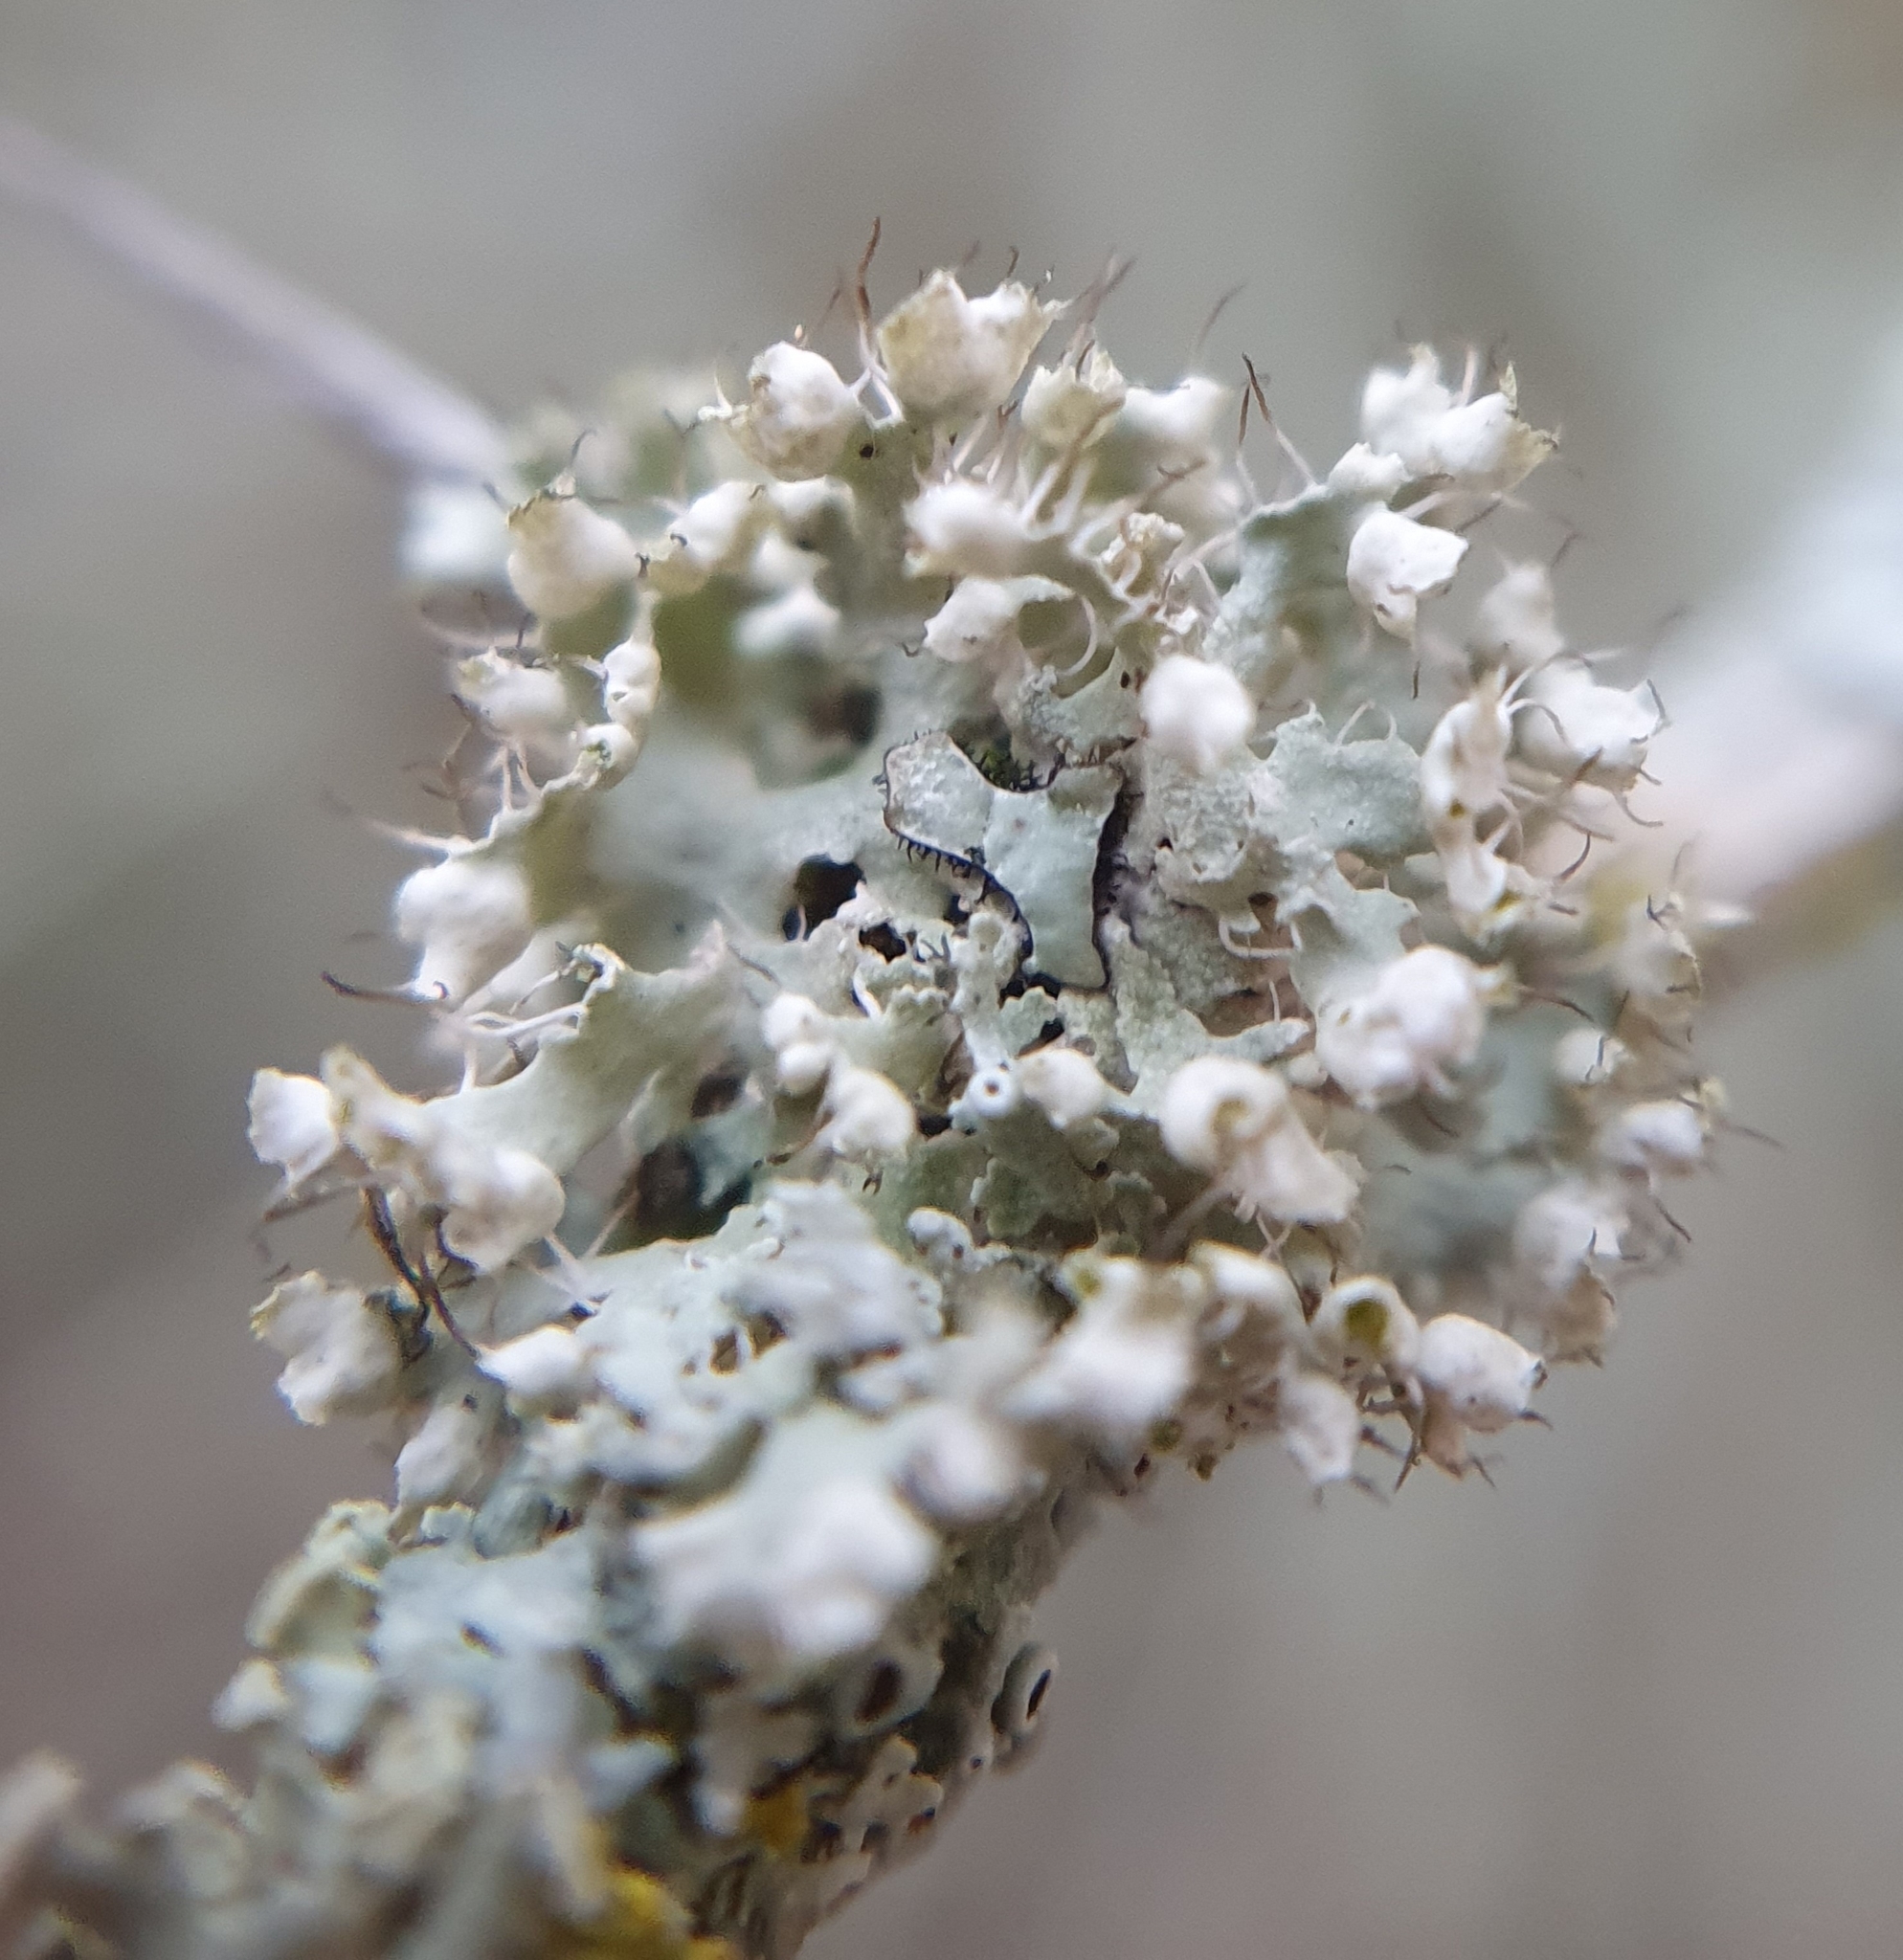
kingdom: Fungi
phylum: Ascomycota
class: Lecanoromycetes
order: Caliciales
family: Physciaceae
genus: Physcia
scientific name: Physcia adscendens
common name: Hooded rosette lichen
